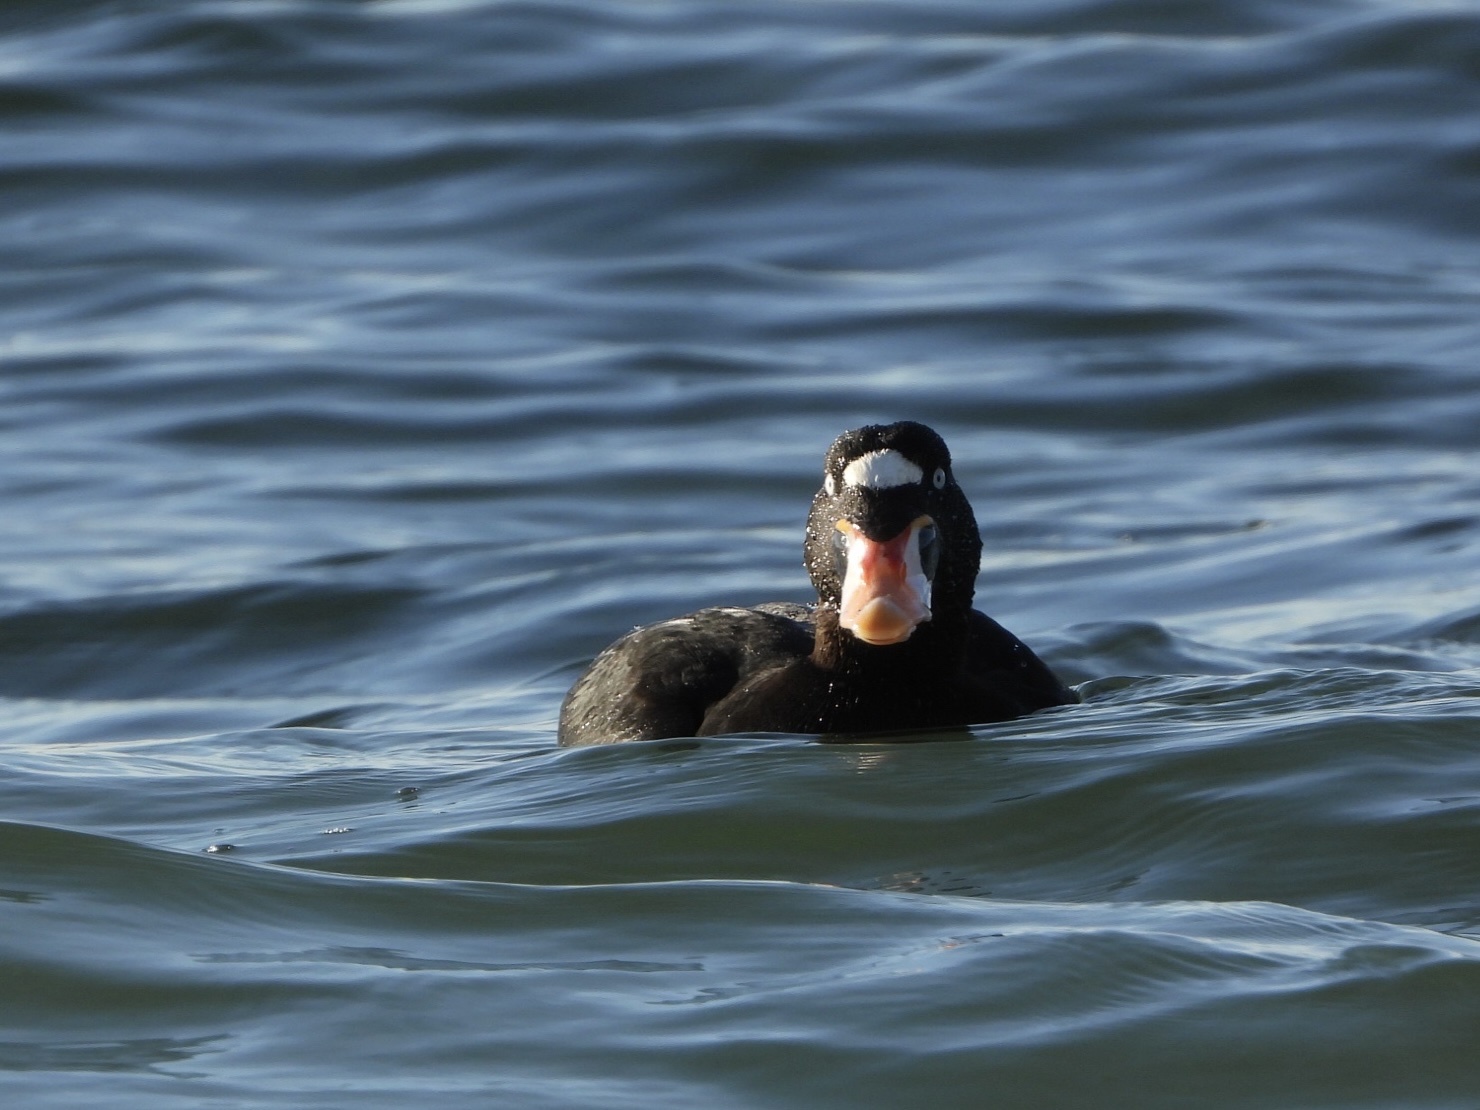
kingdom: Animalia
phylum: Chordata
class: Aves
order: Anseriformes
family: Anatidae
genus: Melanitta
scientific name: Melanitta perspicillata
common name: Surf scoter
